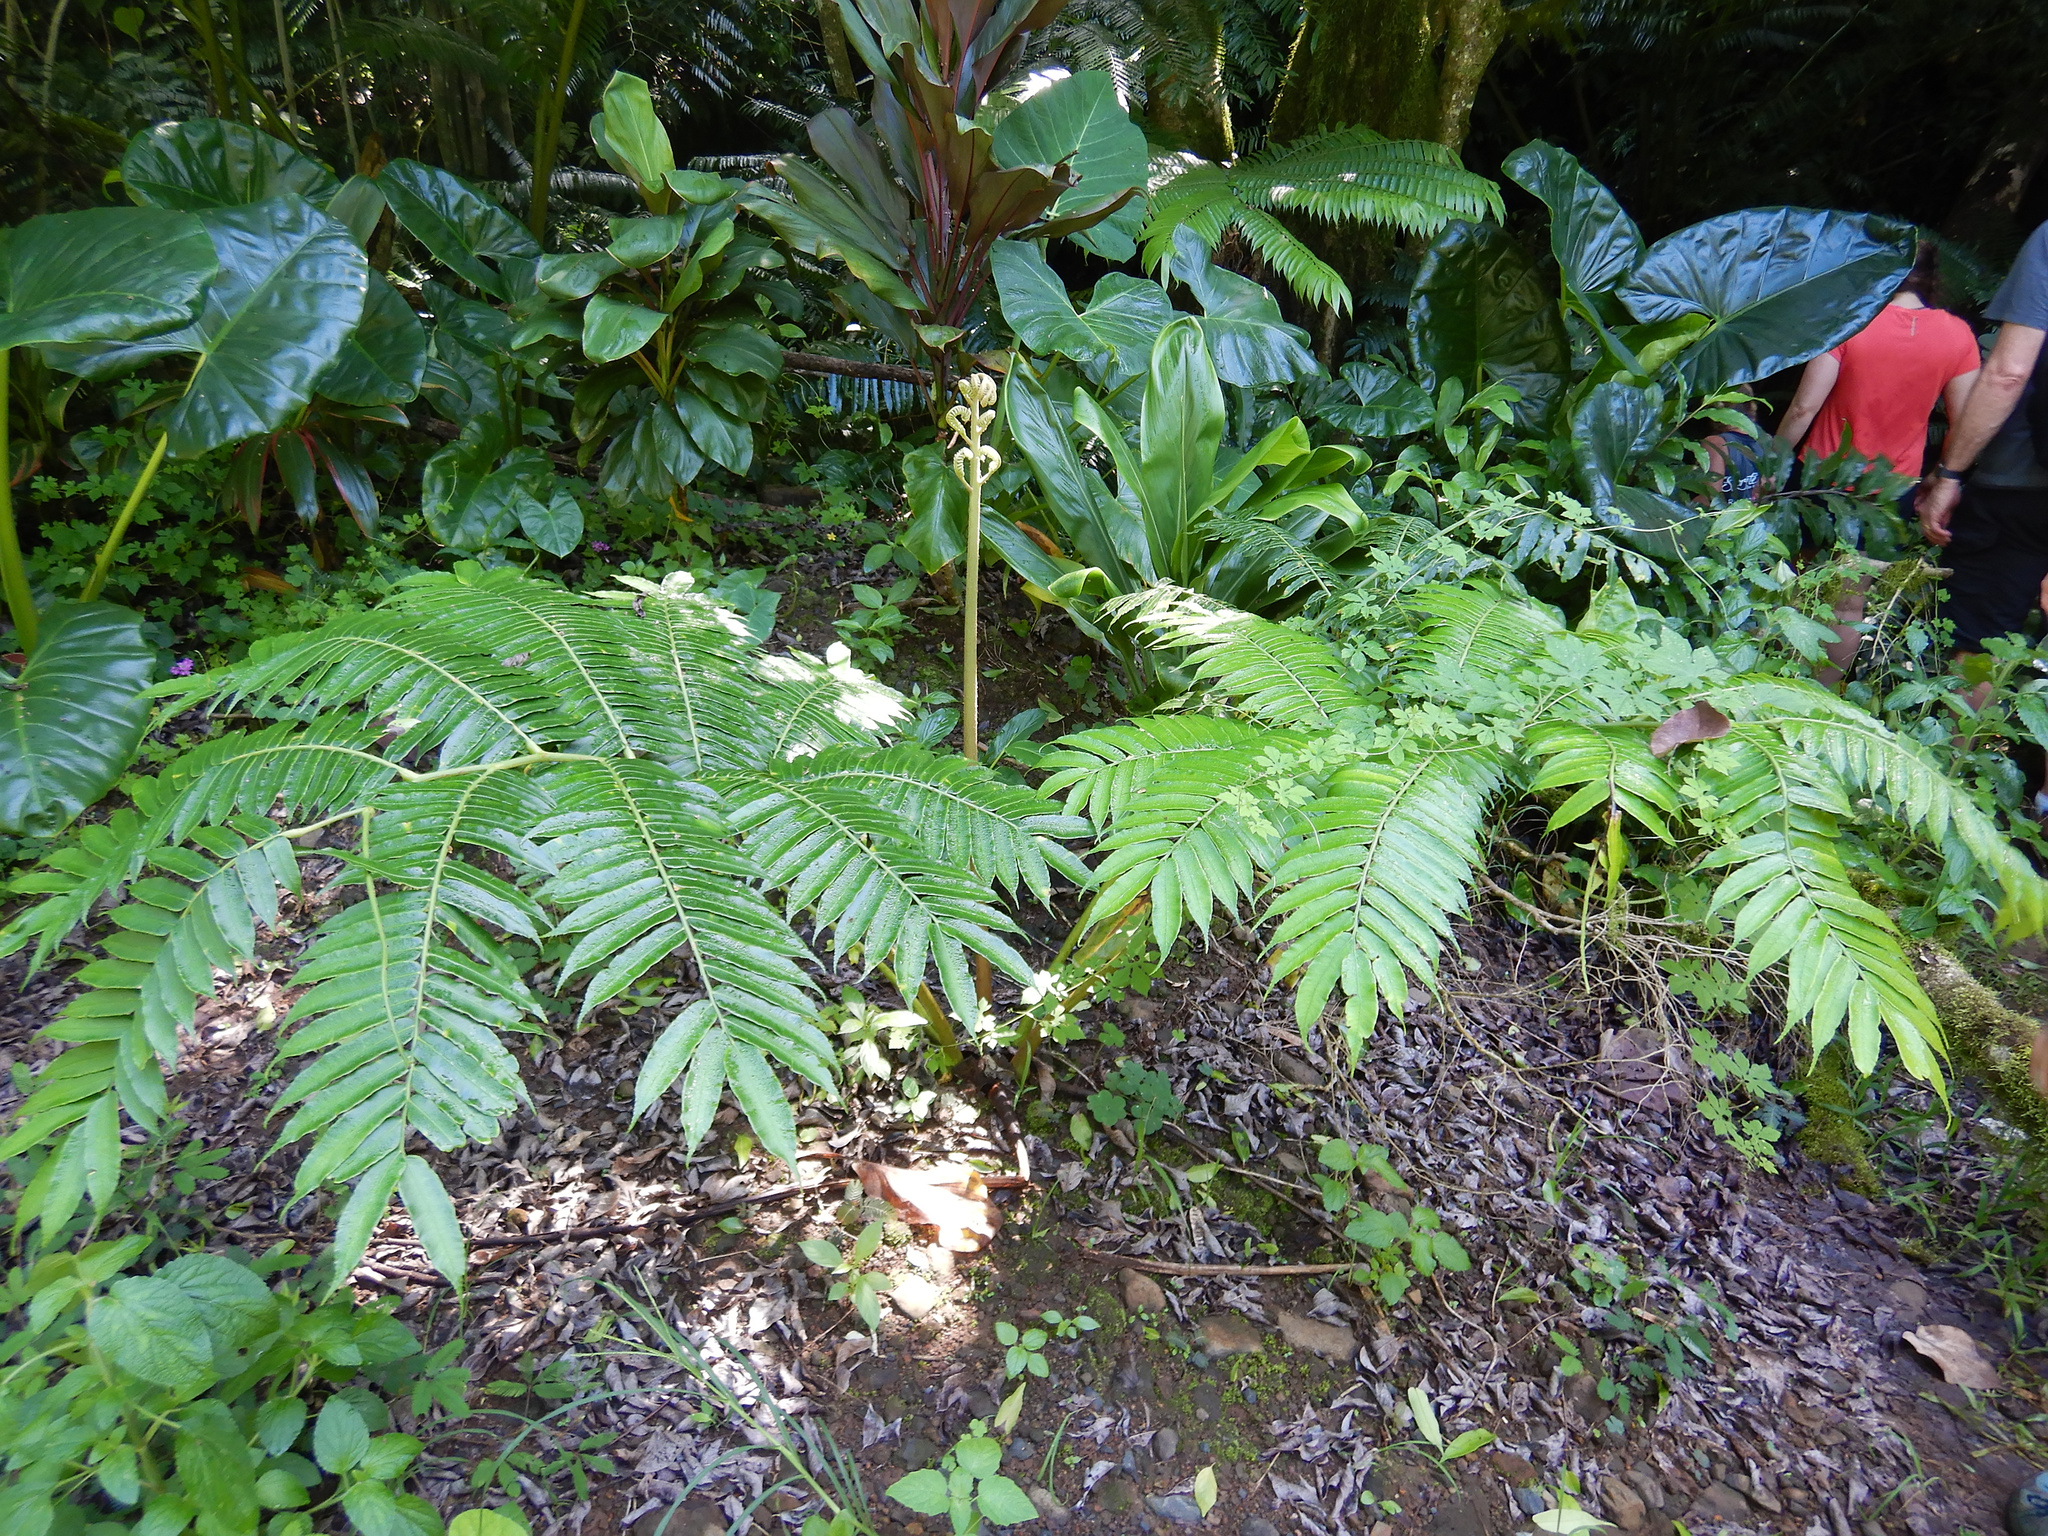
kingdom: Plantae
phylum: Tracheophyta
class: Polypodiopsida
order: Marattiales
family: Marattiaceae
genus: Angiopteris
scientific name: Angiopteris evecta
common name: Mule's-foot fern
